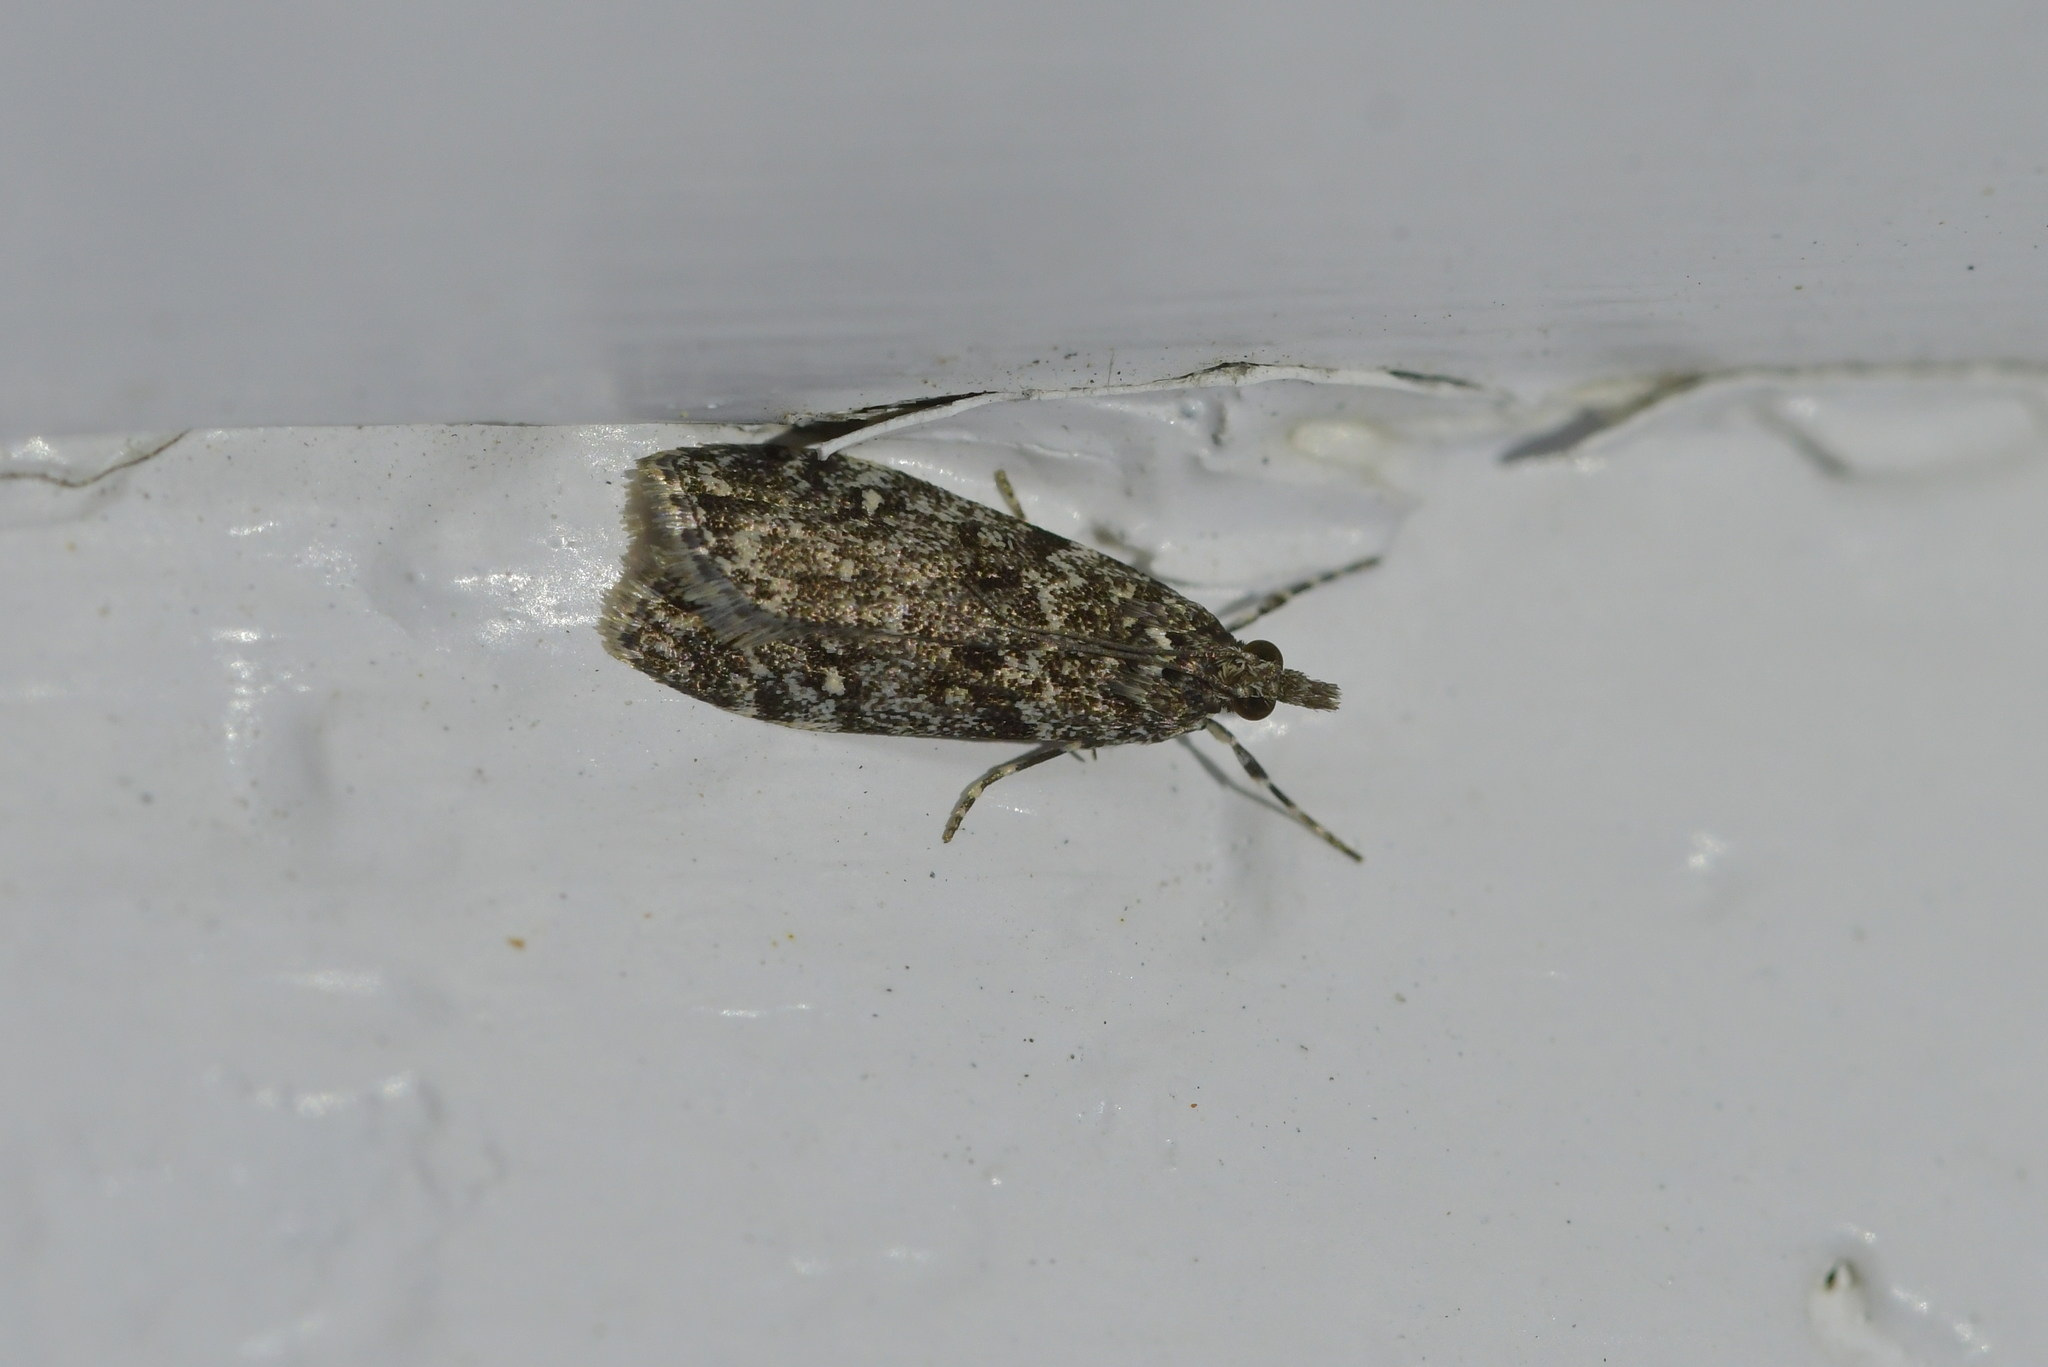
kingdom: Animalia
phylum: Arthropoda
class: Insecta
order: Lepidoptera
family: Crambidae
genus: Eudonia
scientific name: Eudonia philerga
